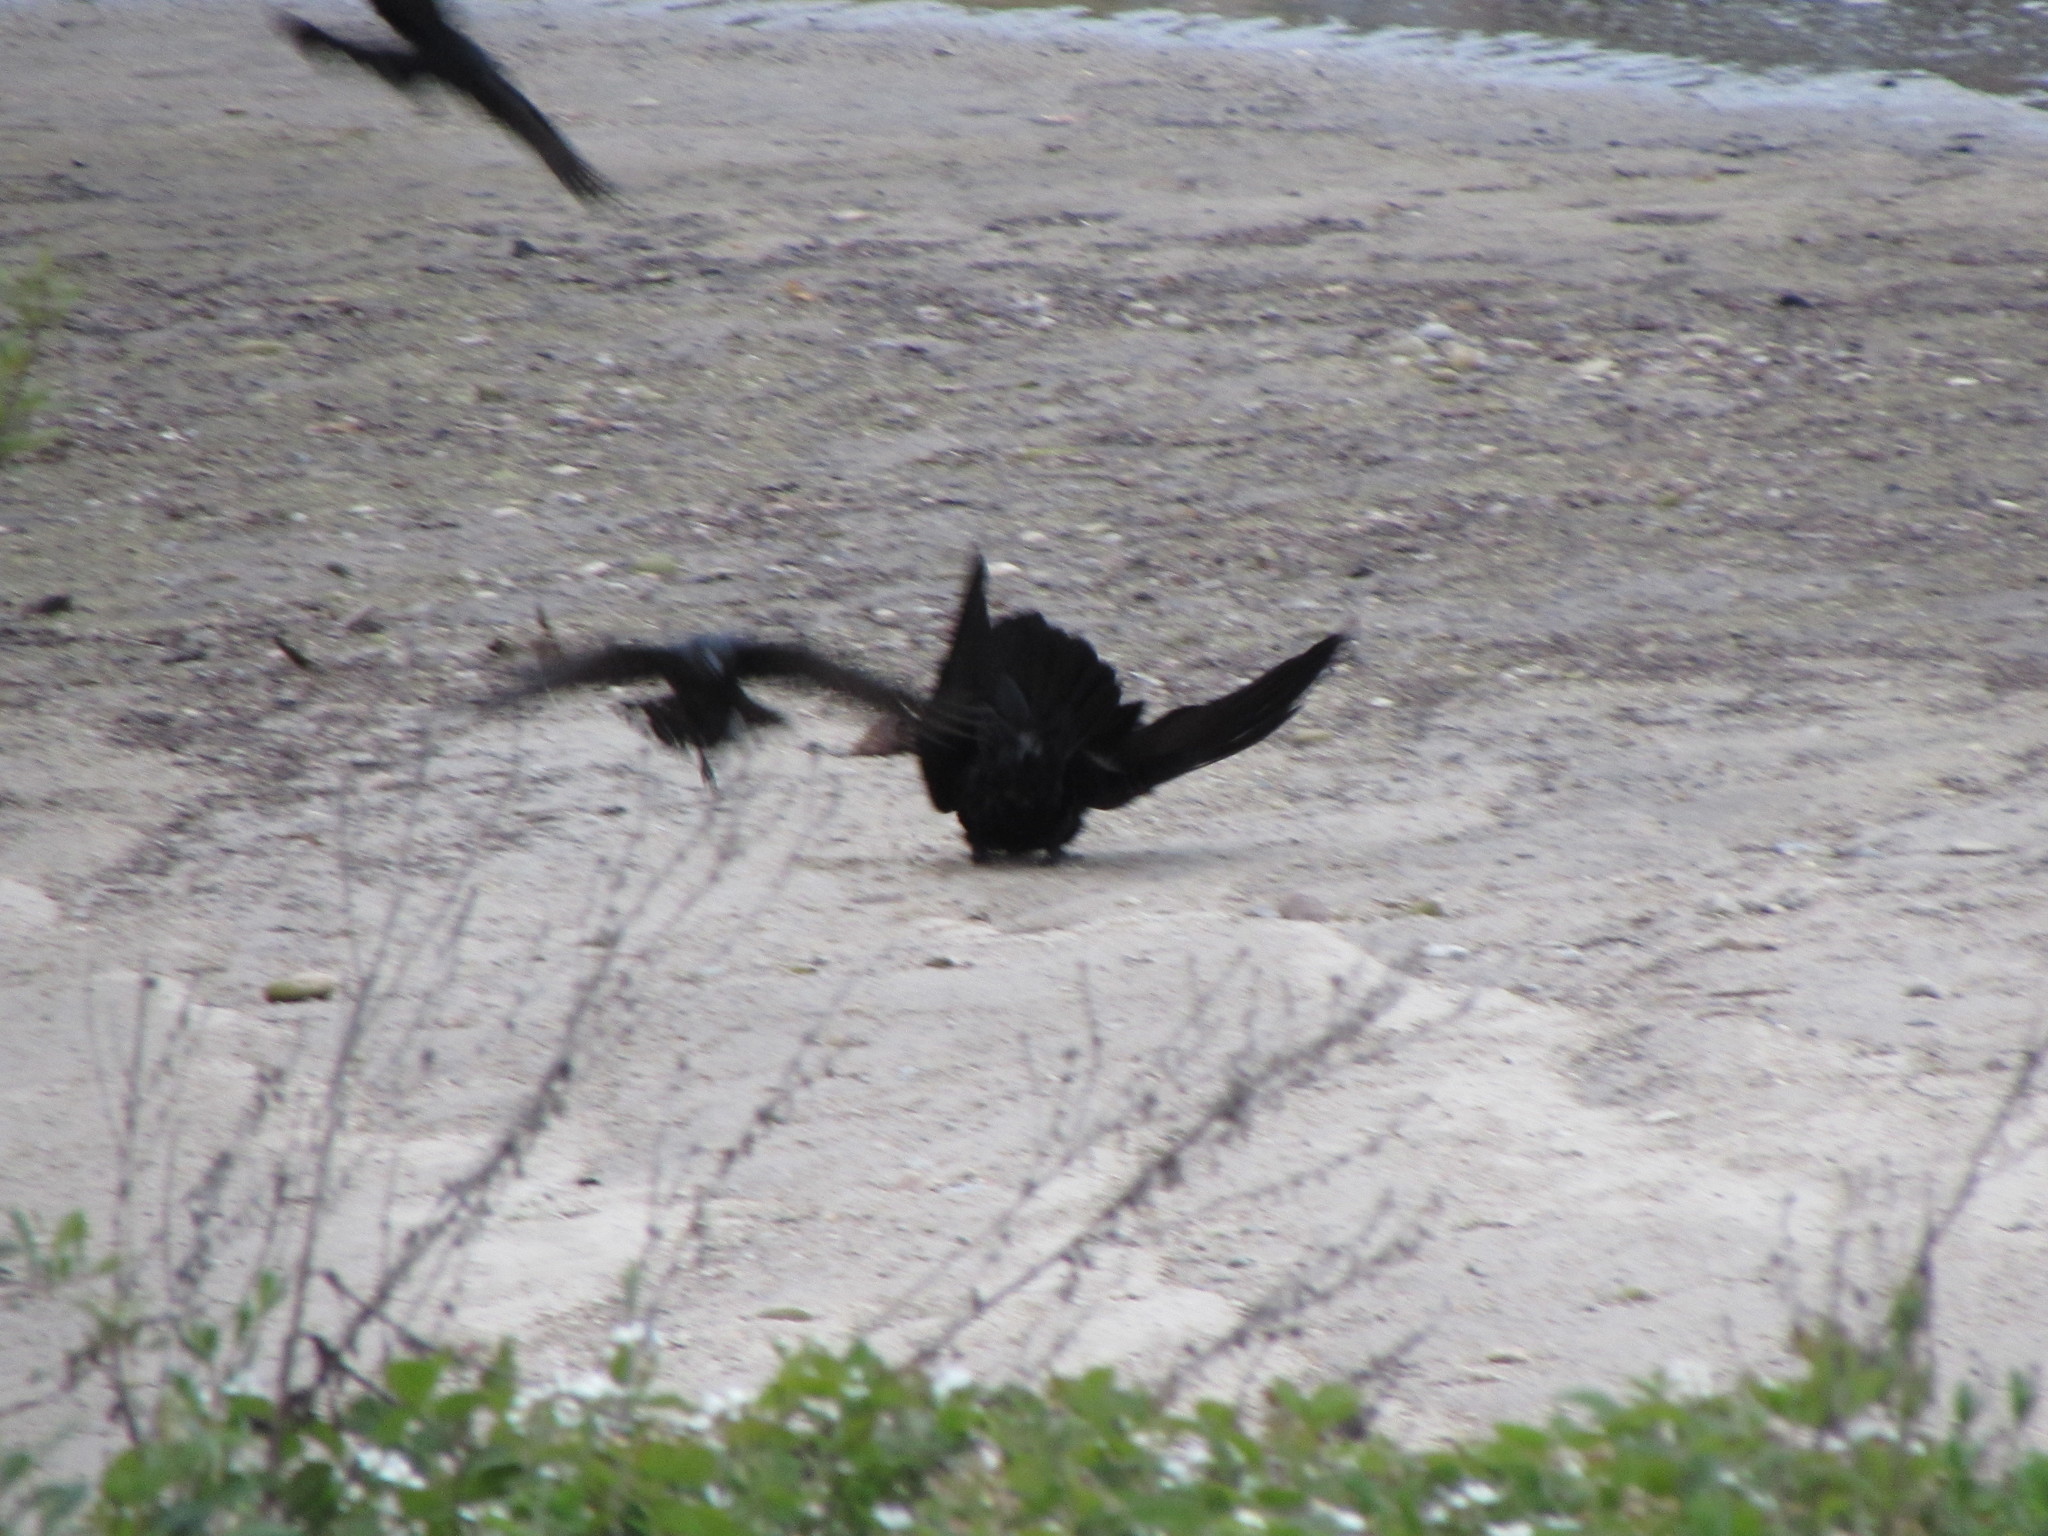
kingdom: Animalia
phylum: Chordata
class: Aves
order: Passeriformes
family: Corvidae
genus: Corvus
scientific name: Corvus corax
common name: Common raven
